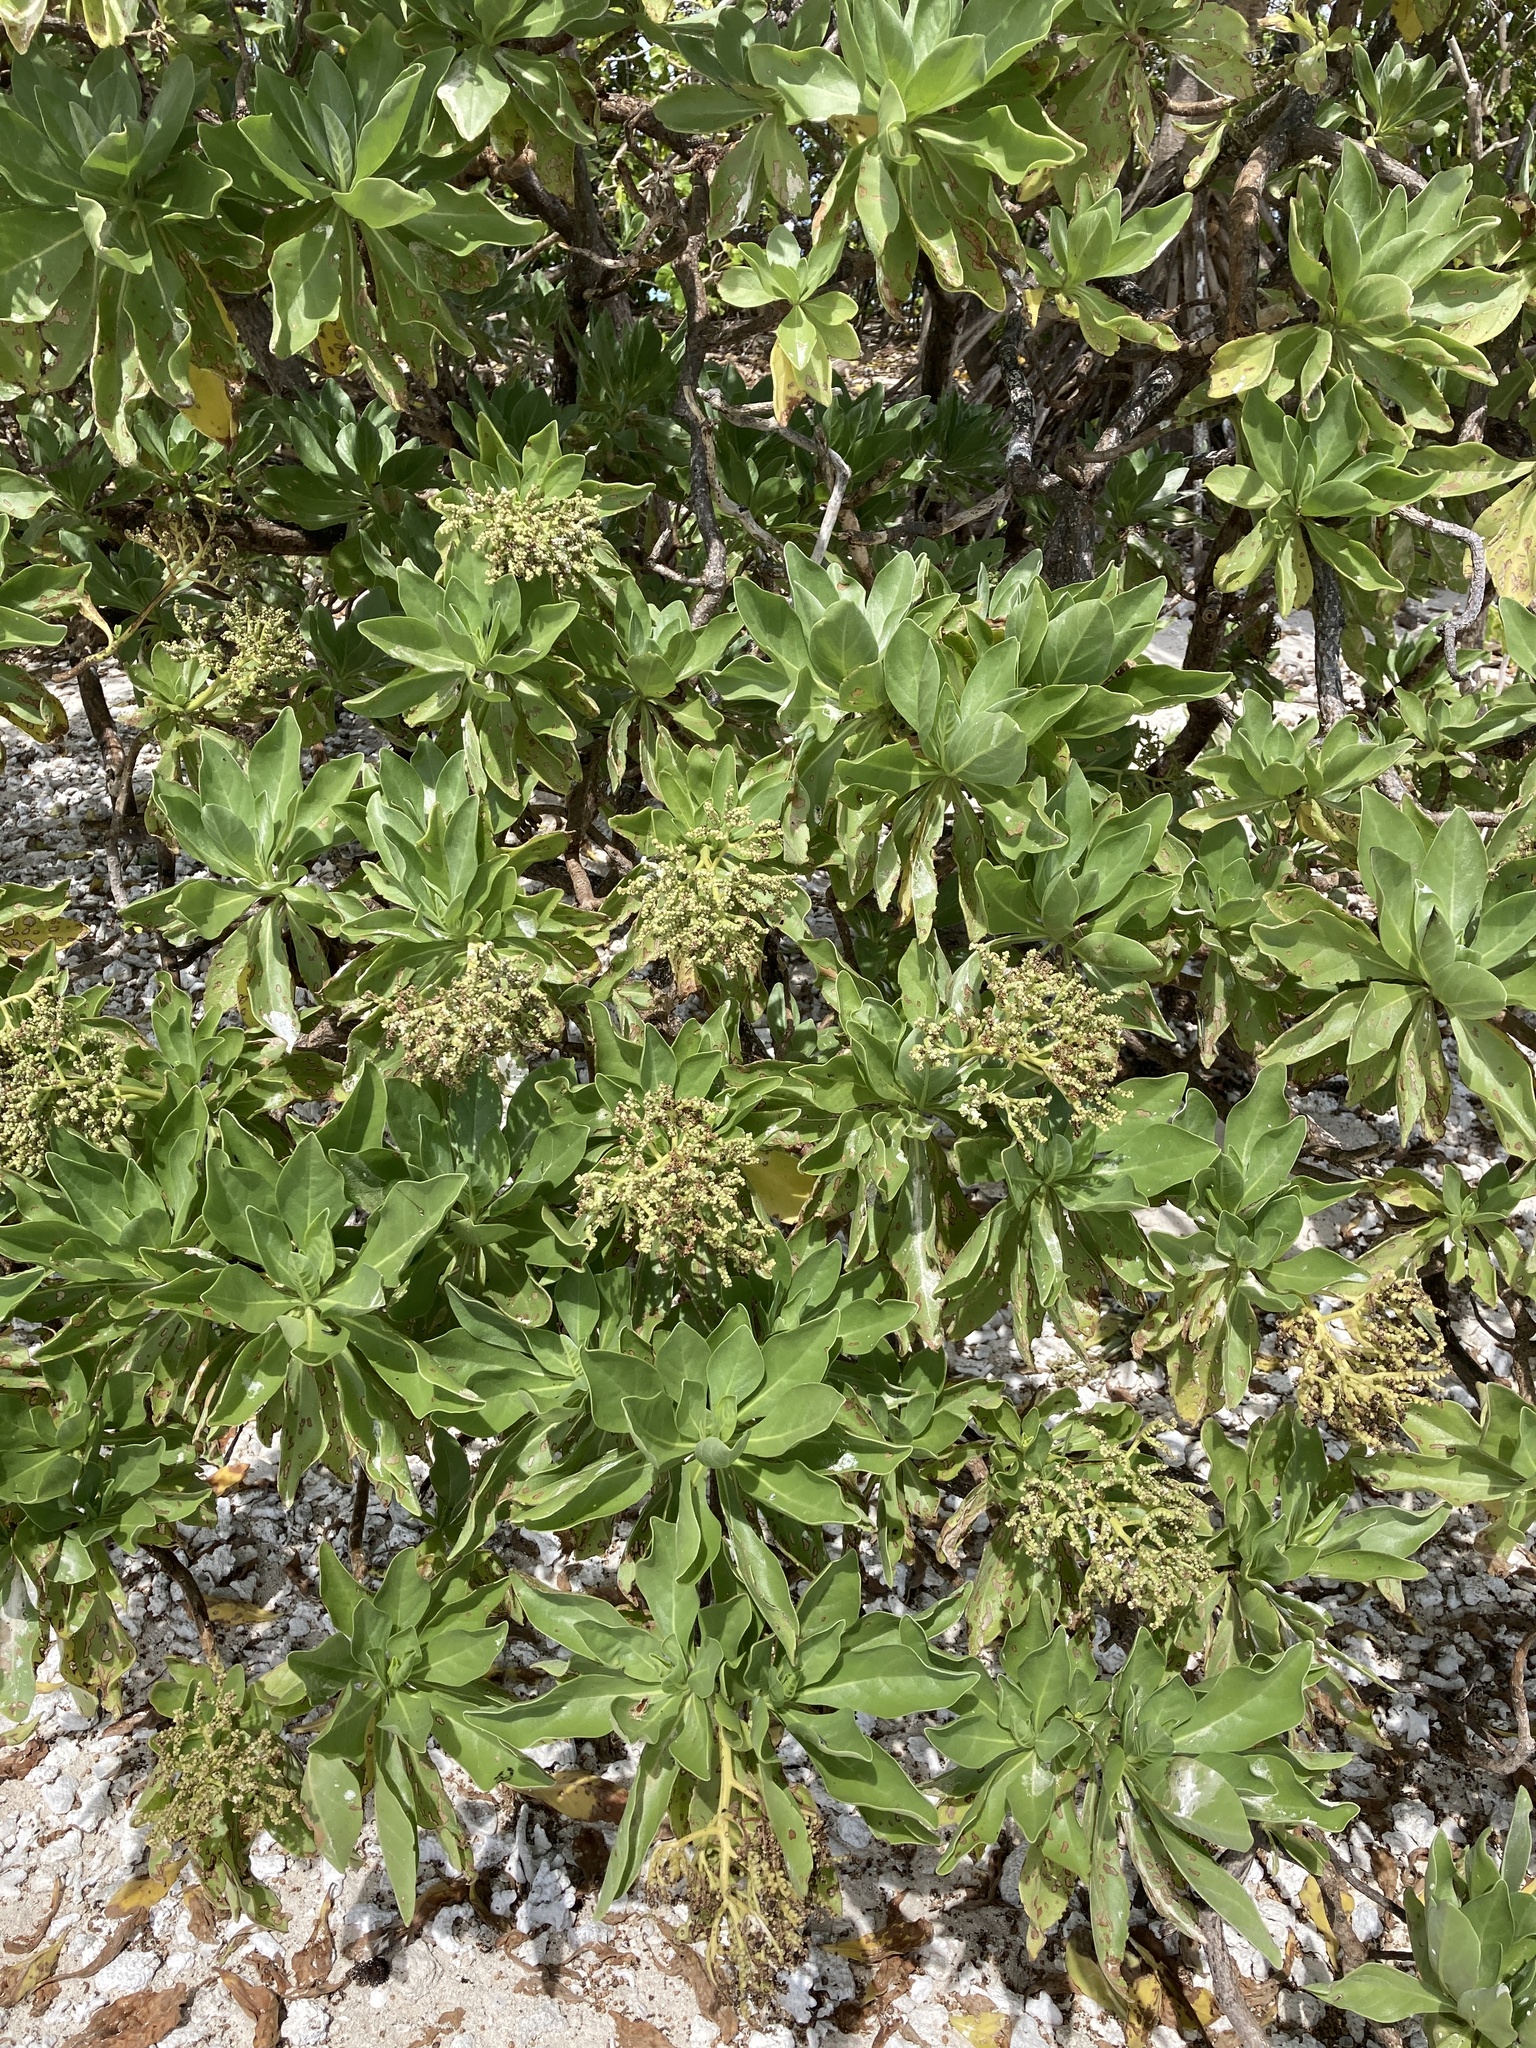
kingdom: Plantae
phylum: Tracheophyta
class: Magnoliopsida
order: Boraginales
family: Heliotropiaceae
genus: Heliotropium
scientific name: Heliotropium velutinum
